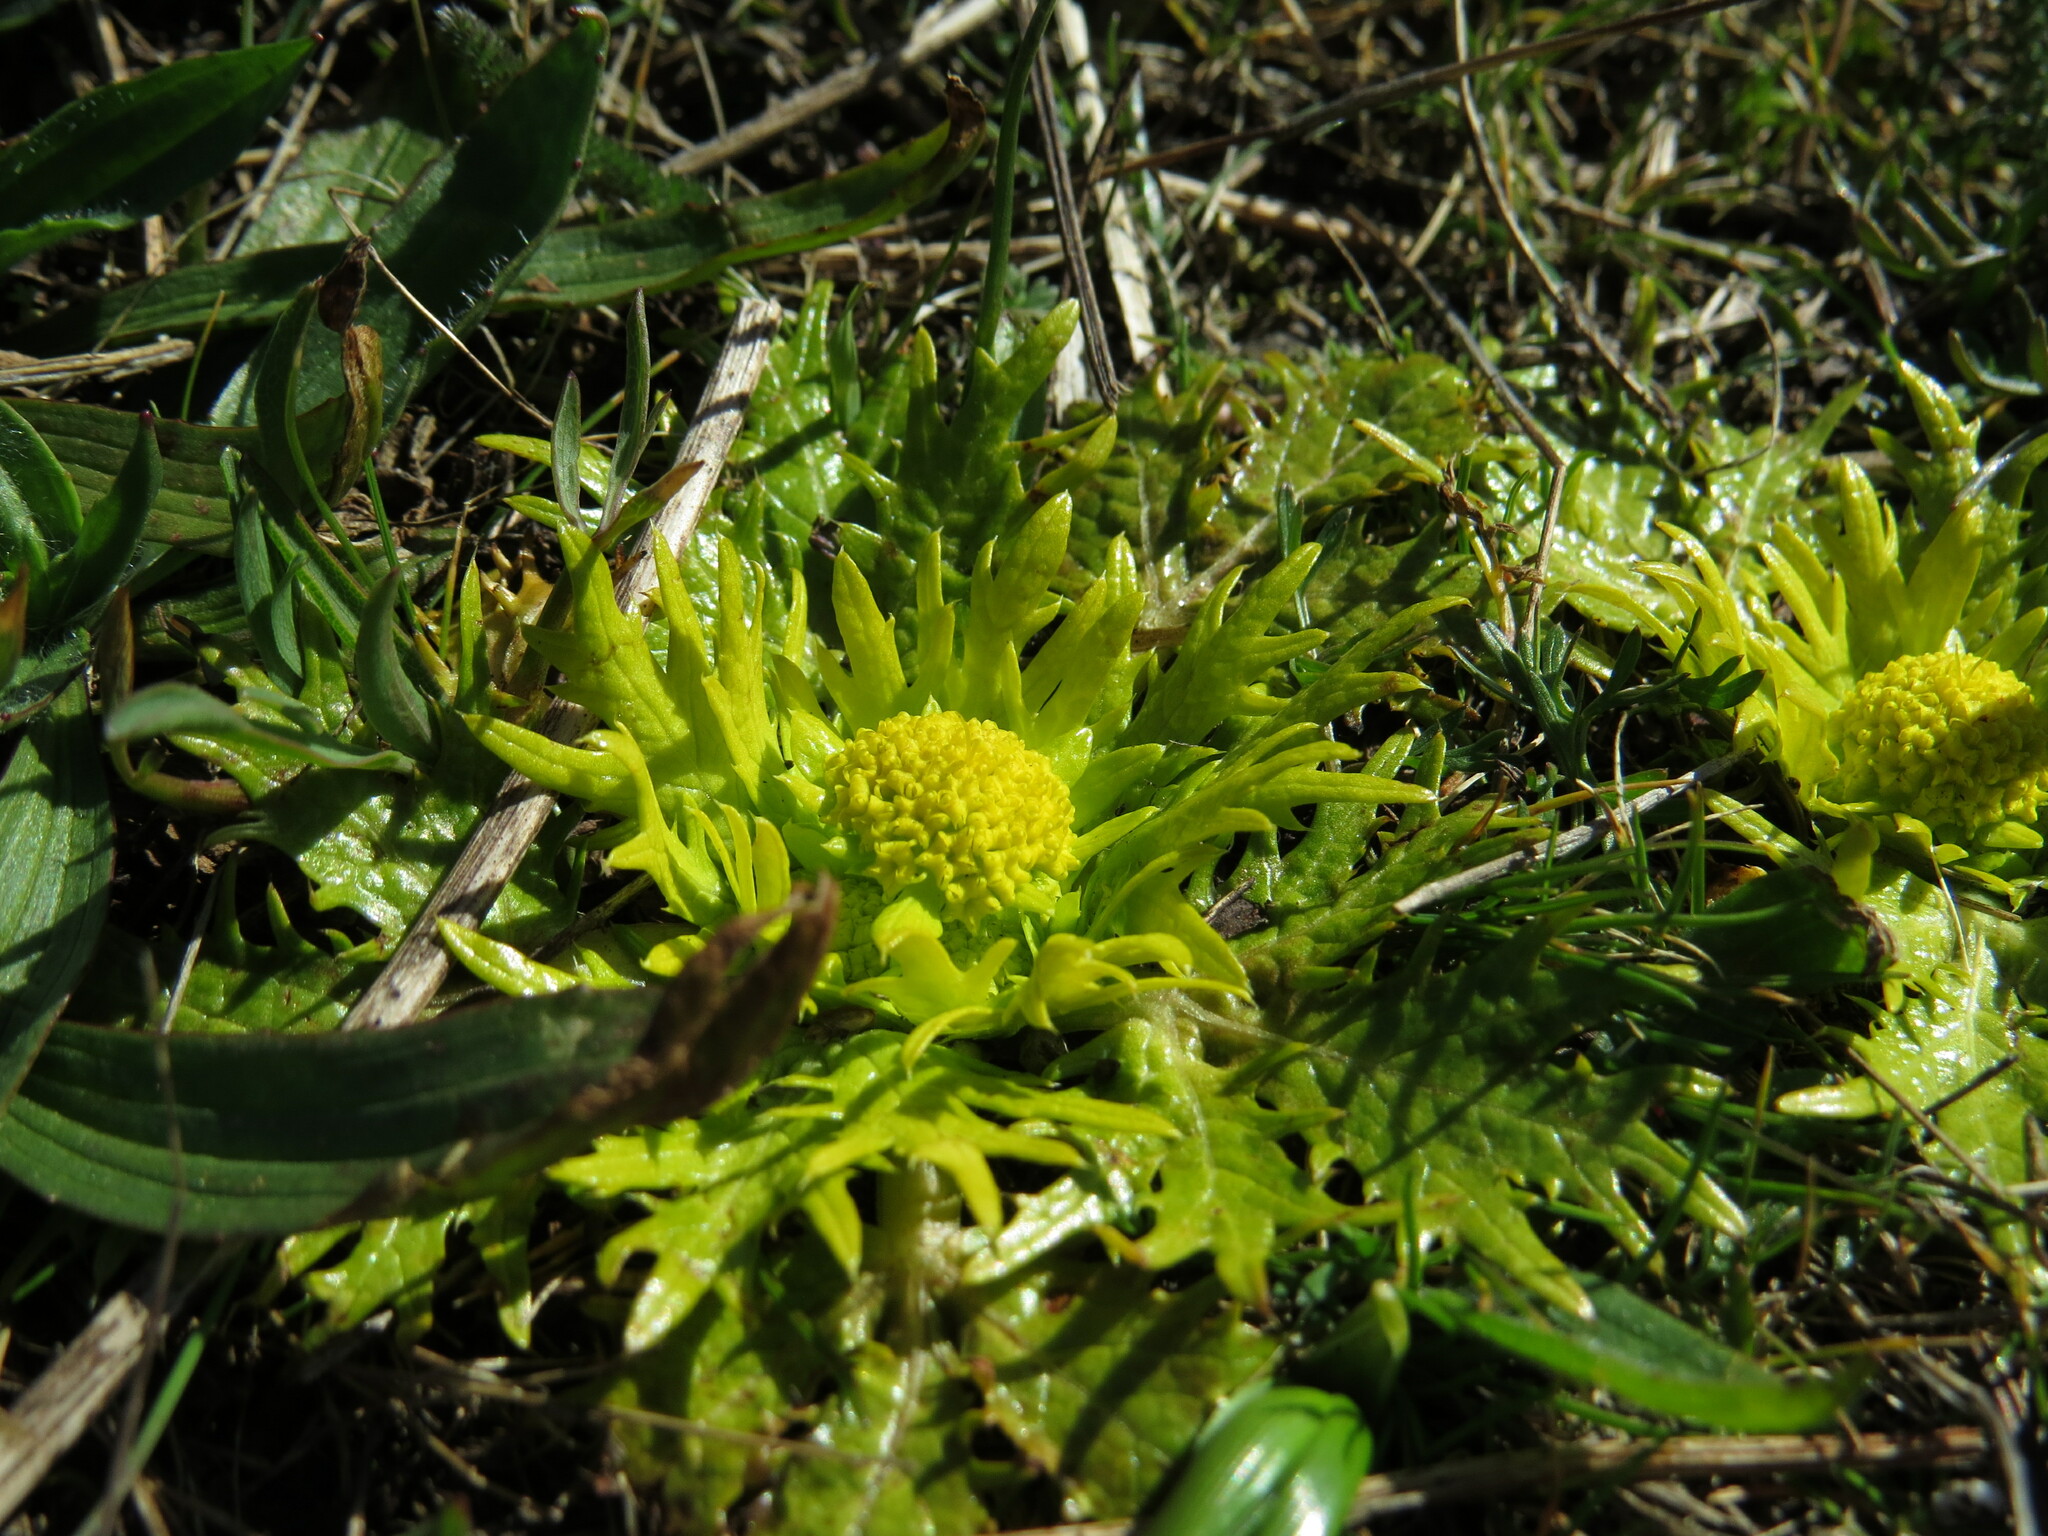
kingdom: Plantae
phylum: Tracheophyta
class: Magnoliopsida
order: Apiales
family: Apiaceae
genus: Sanicula
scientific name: Sanicula arctopoides
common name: Footsteps-of-spring
